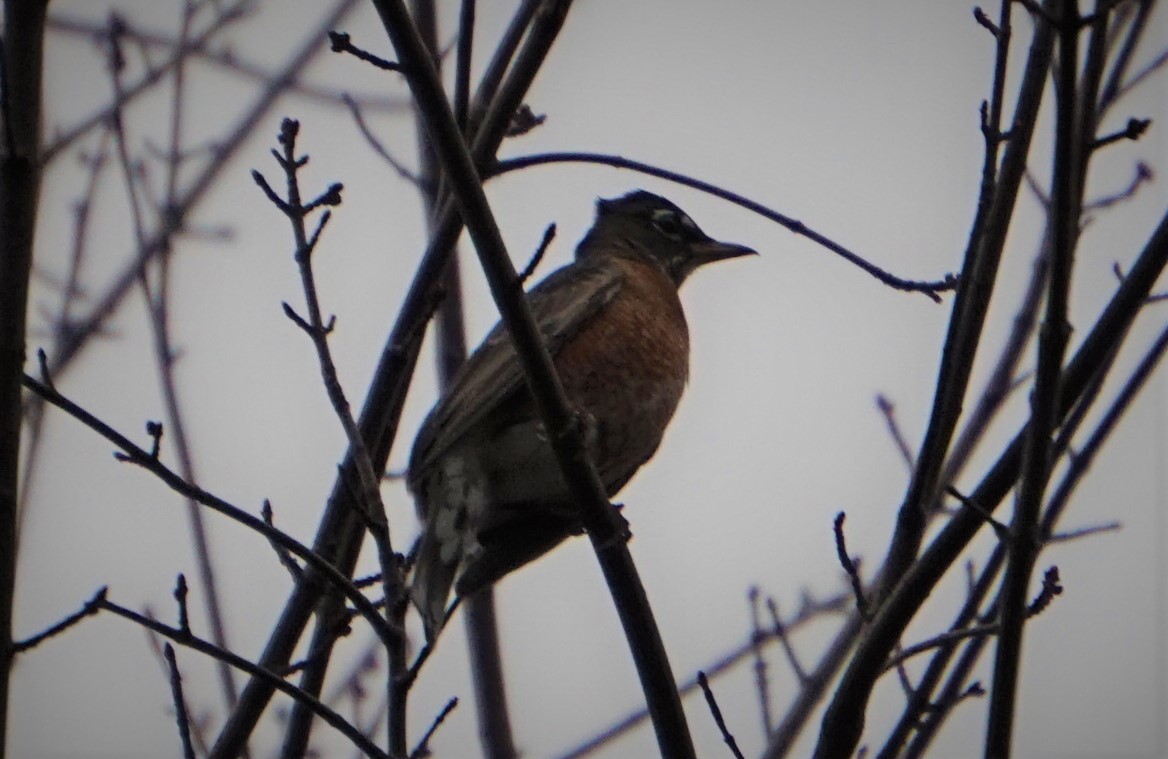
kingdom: Animalia
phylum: Chordata
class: Aves
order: Passeriformes
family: Turdidae
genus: Turdus
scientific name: Turdus migratorius
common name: American robin
